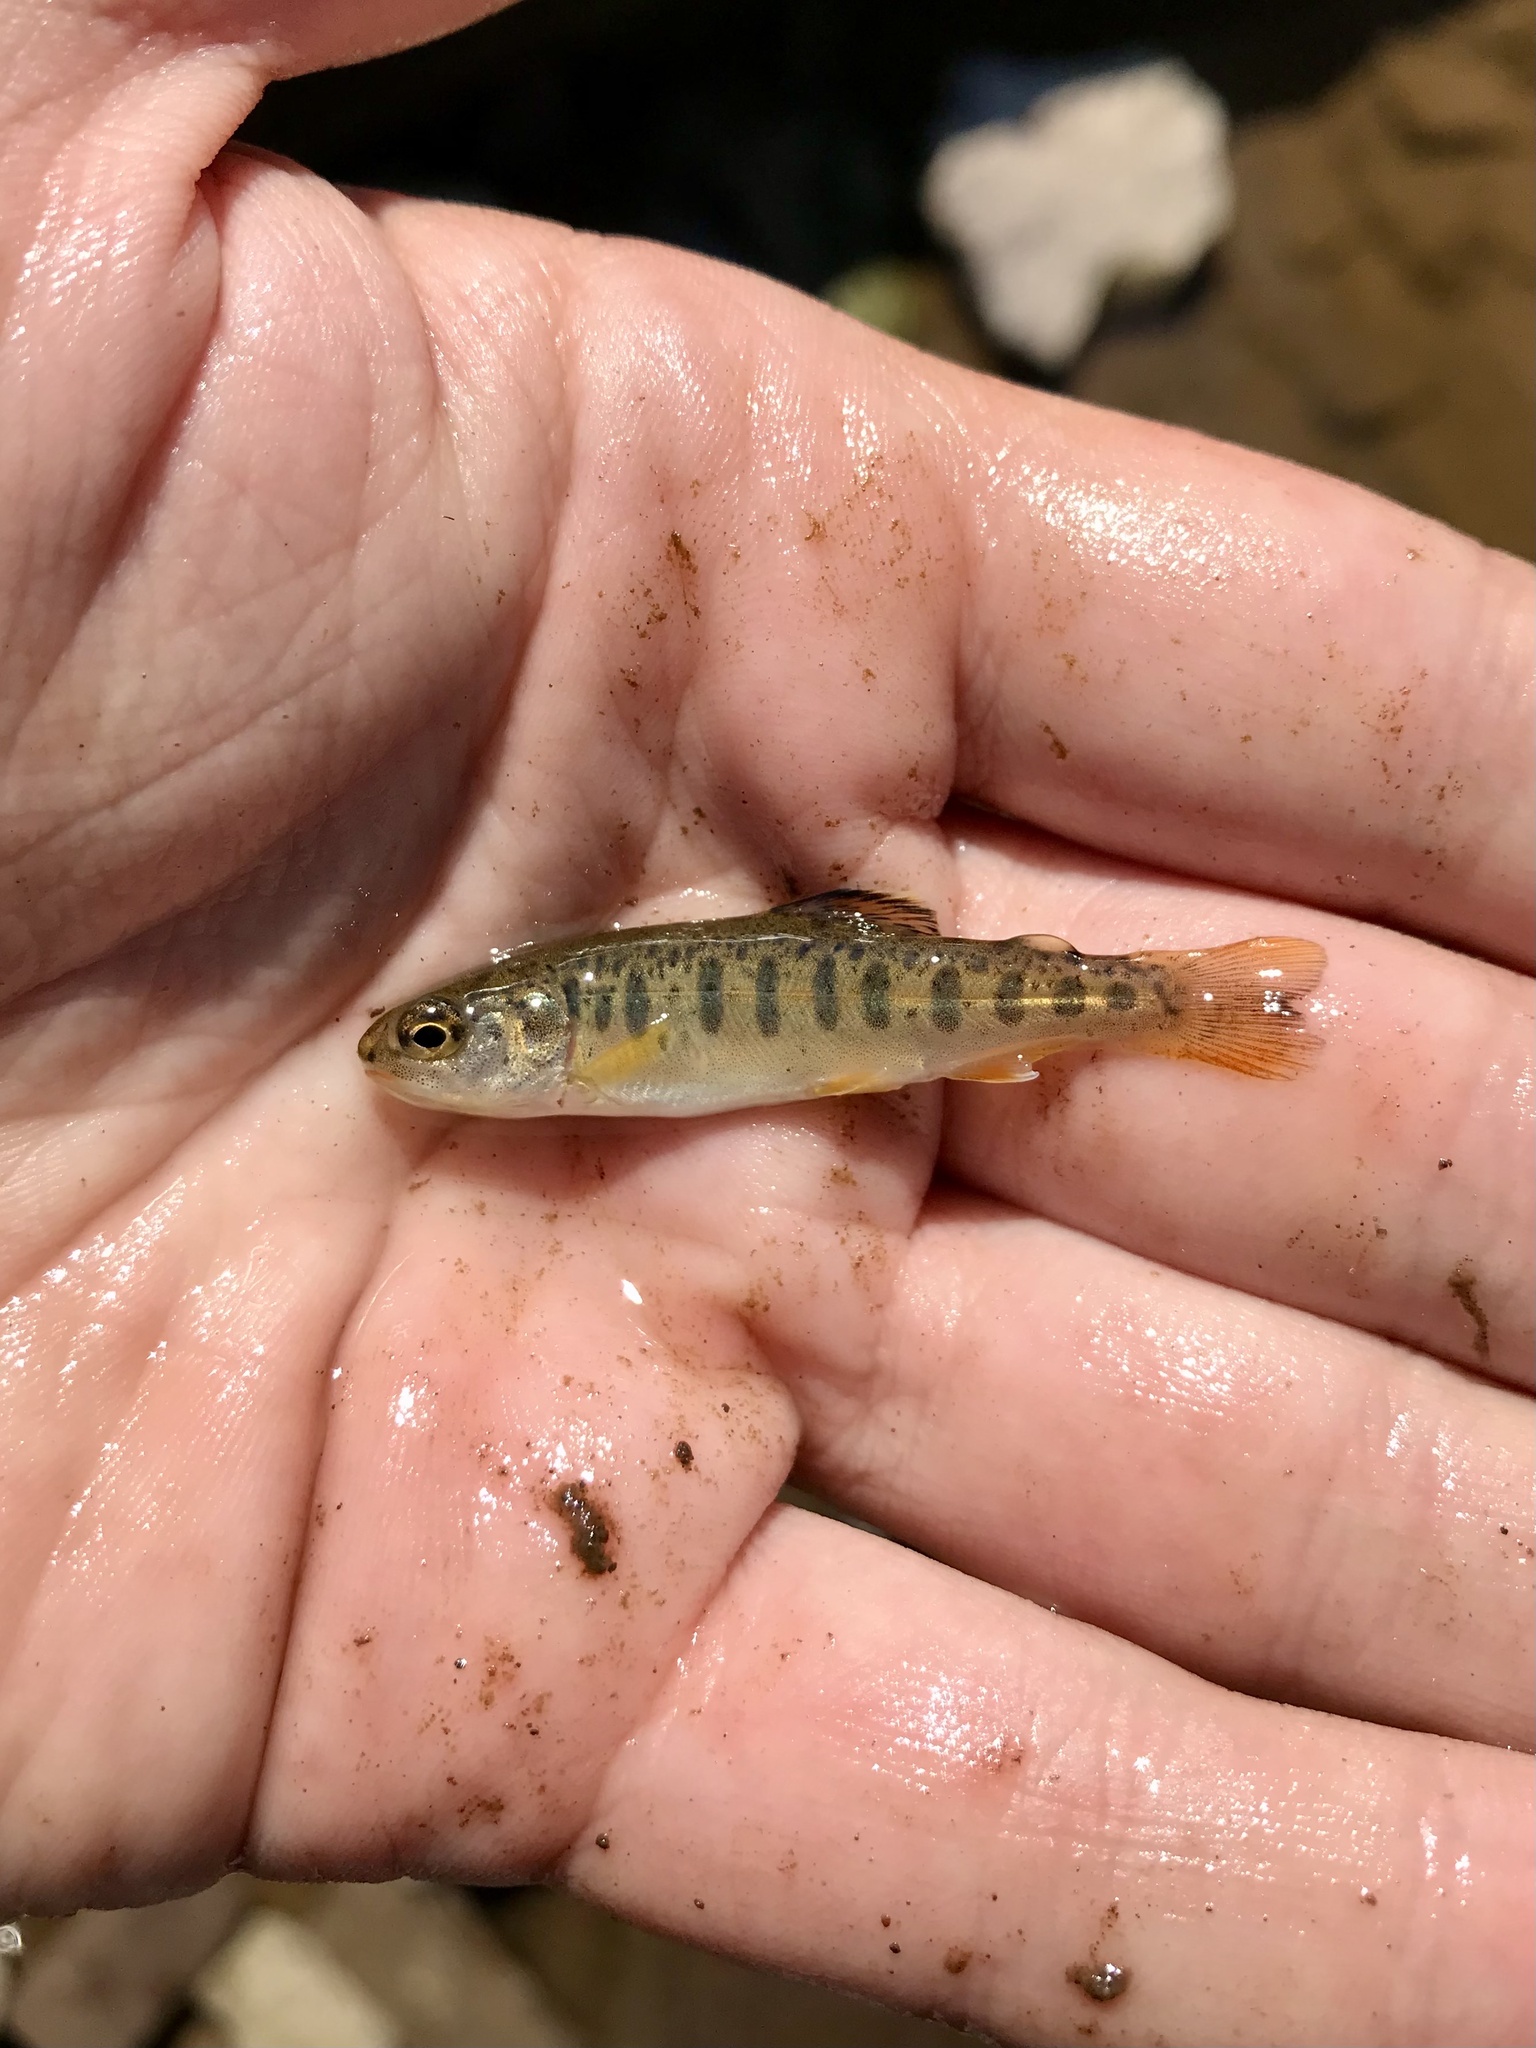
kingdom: Animalia
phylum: Chordata
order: Salmoniformes
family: Salmonidae
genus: Oncorhynchus
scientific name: Oncorhynchus mykiss
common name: Rainbow trout
